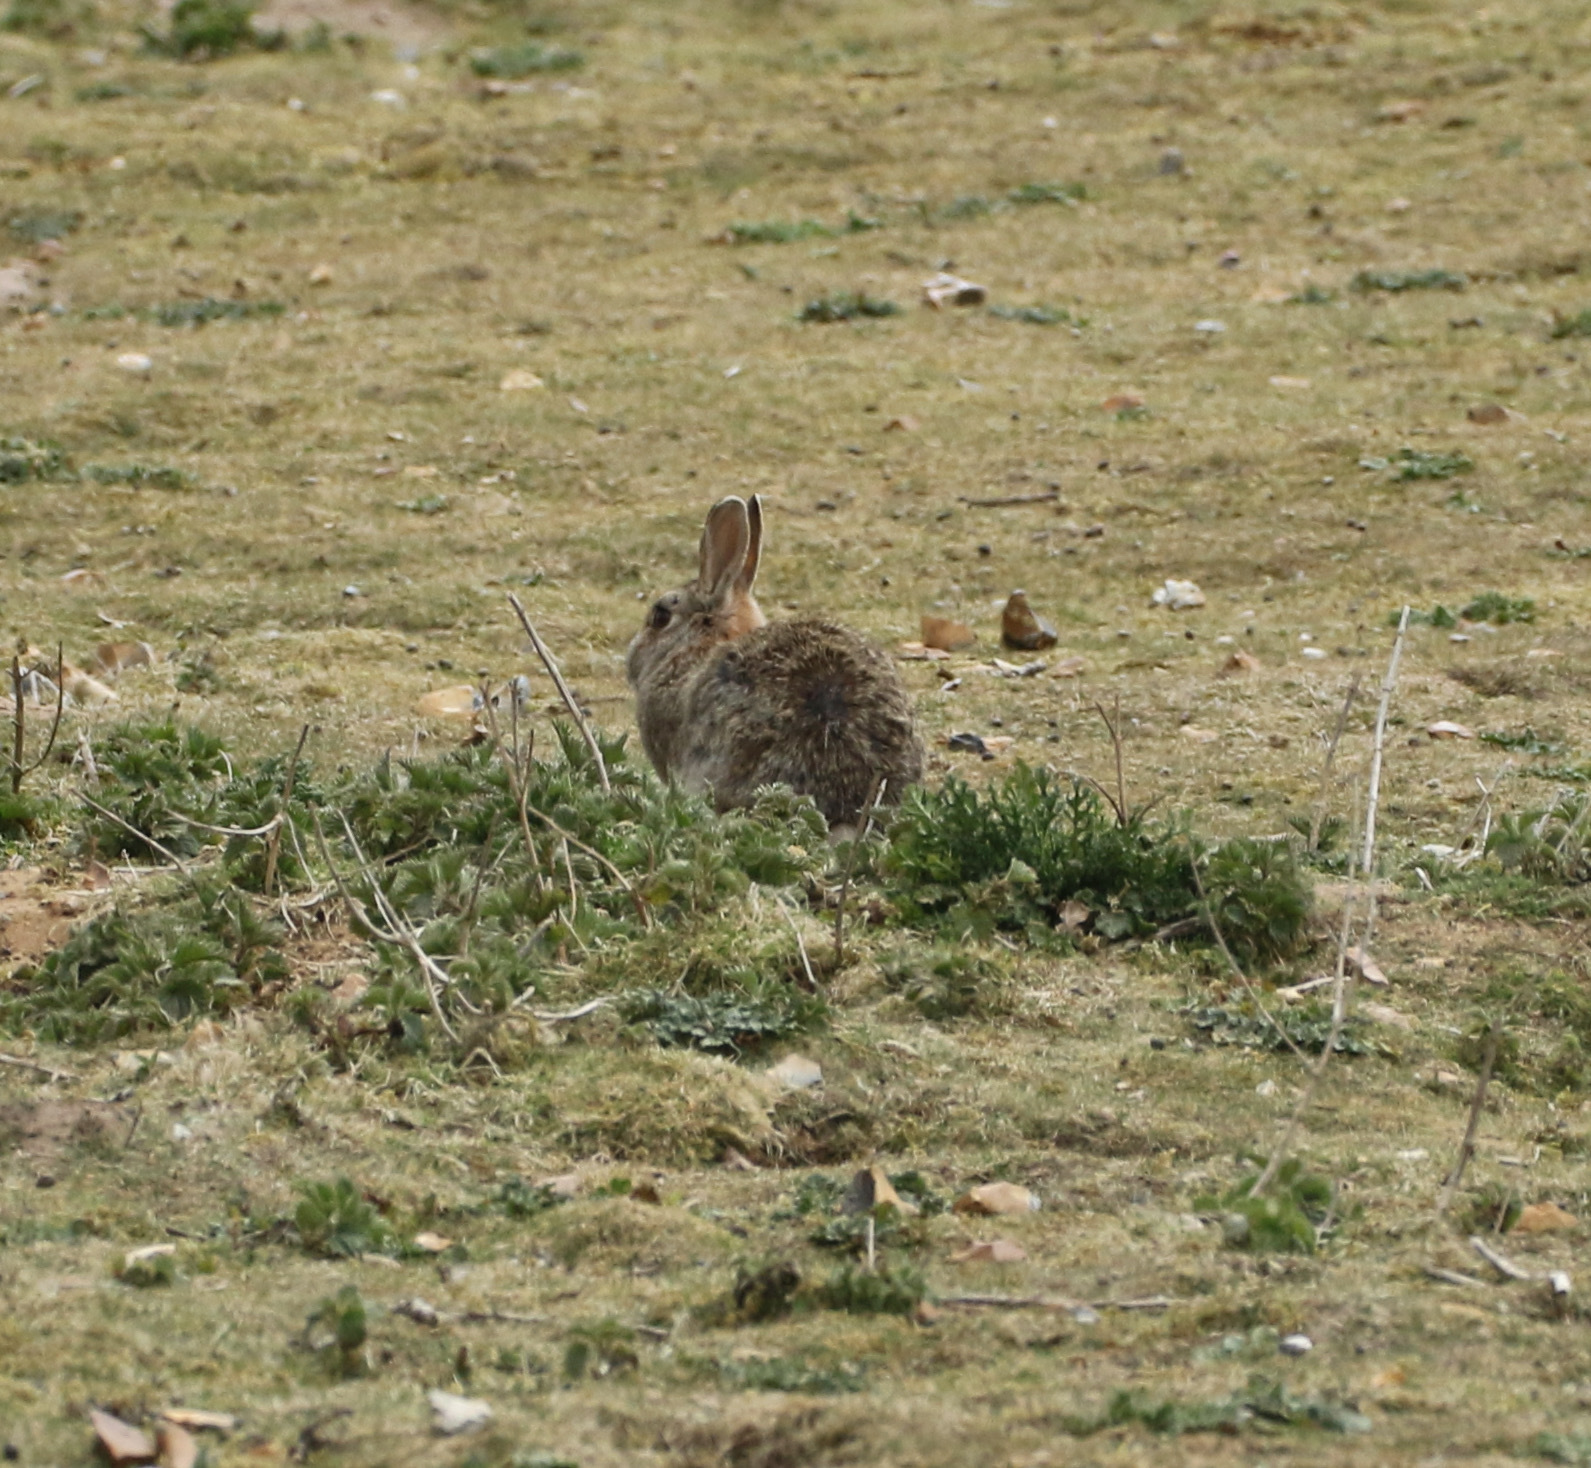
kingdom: Animalia
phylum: Chordata
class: Mammalia
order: Lagomorpha
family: Leporidae
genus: Oryctolagus
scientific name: Oryctolagus cuniculus
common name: European rabbit
